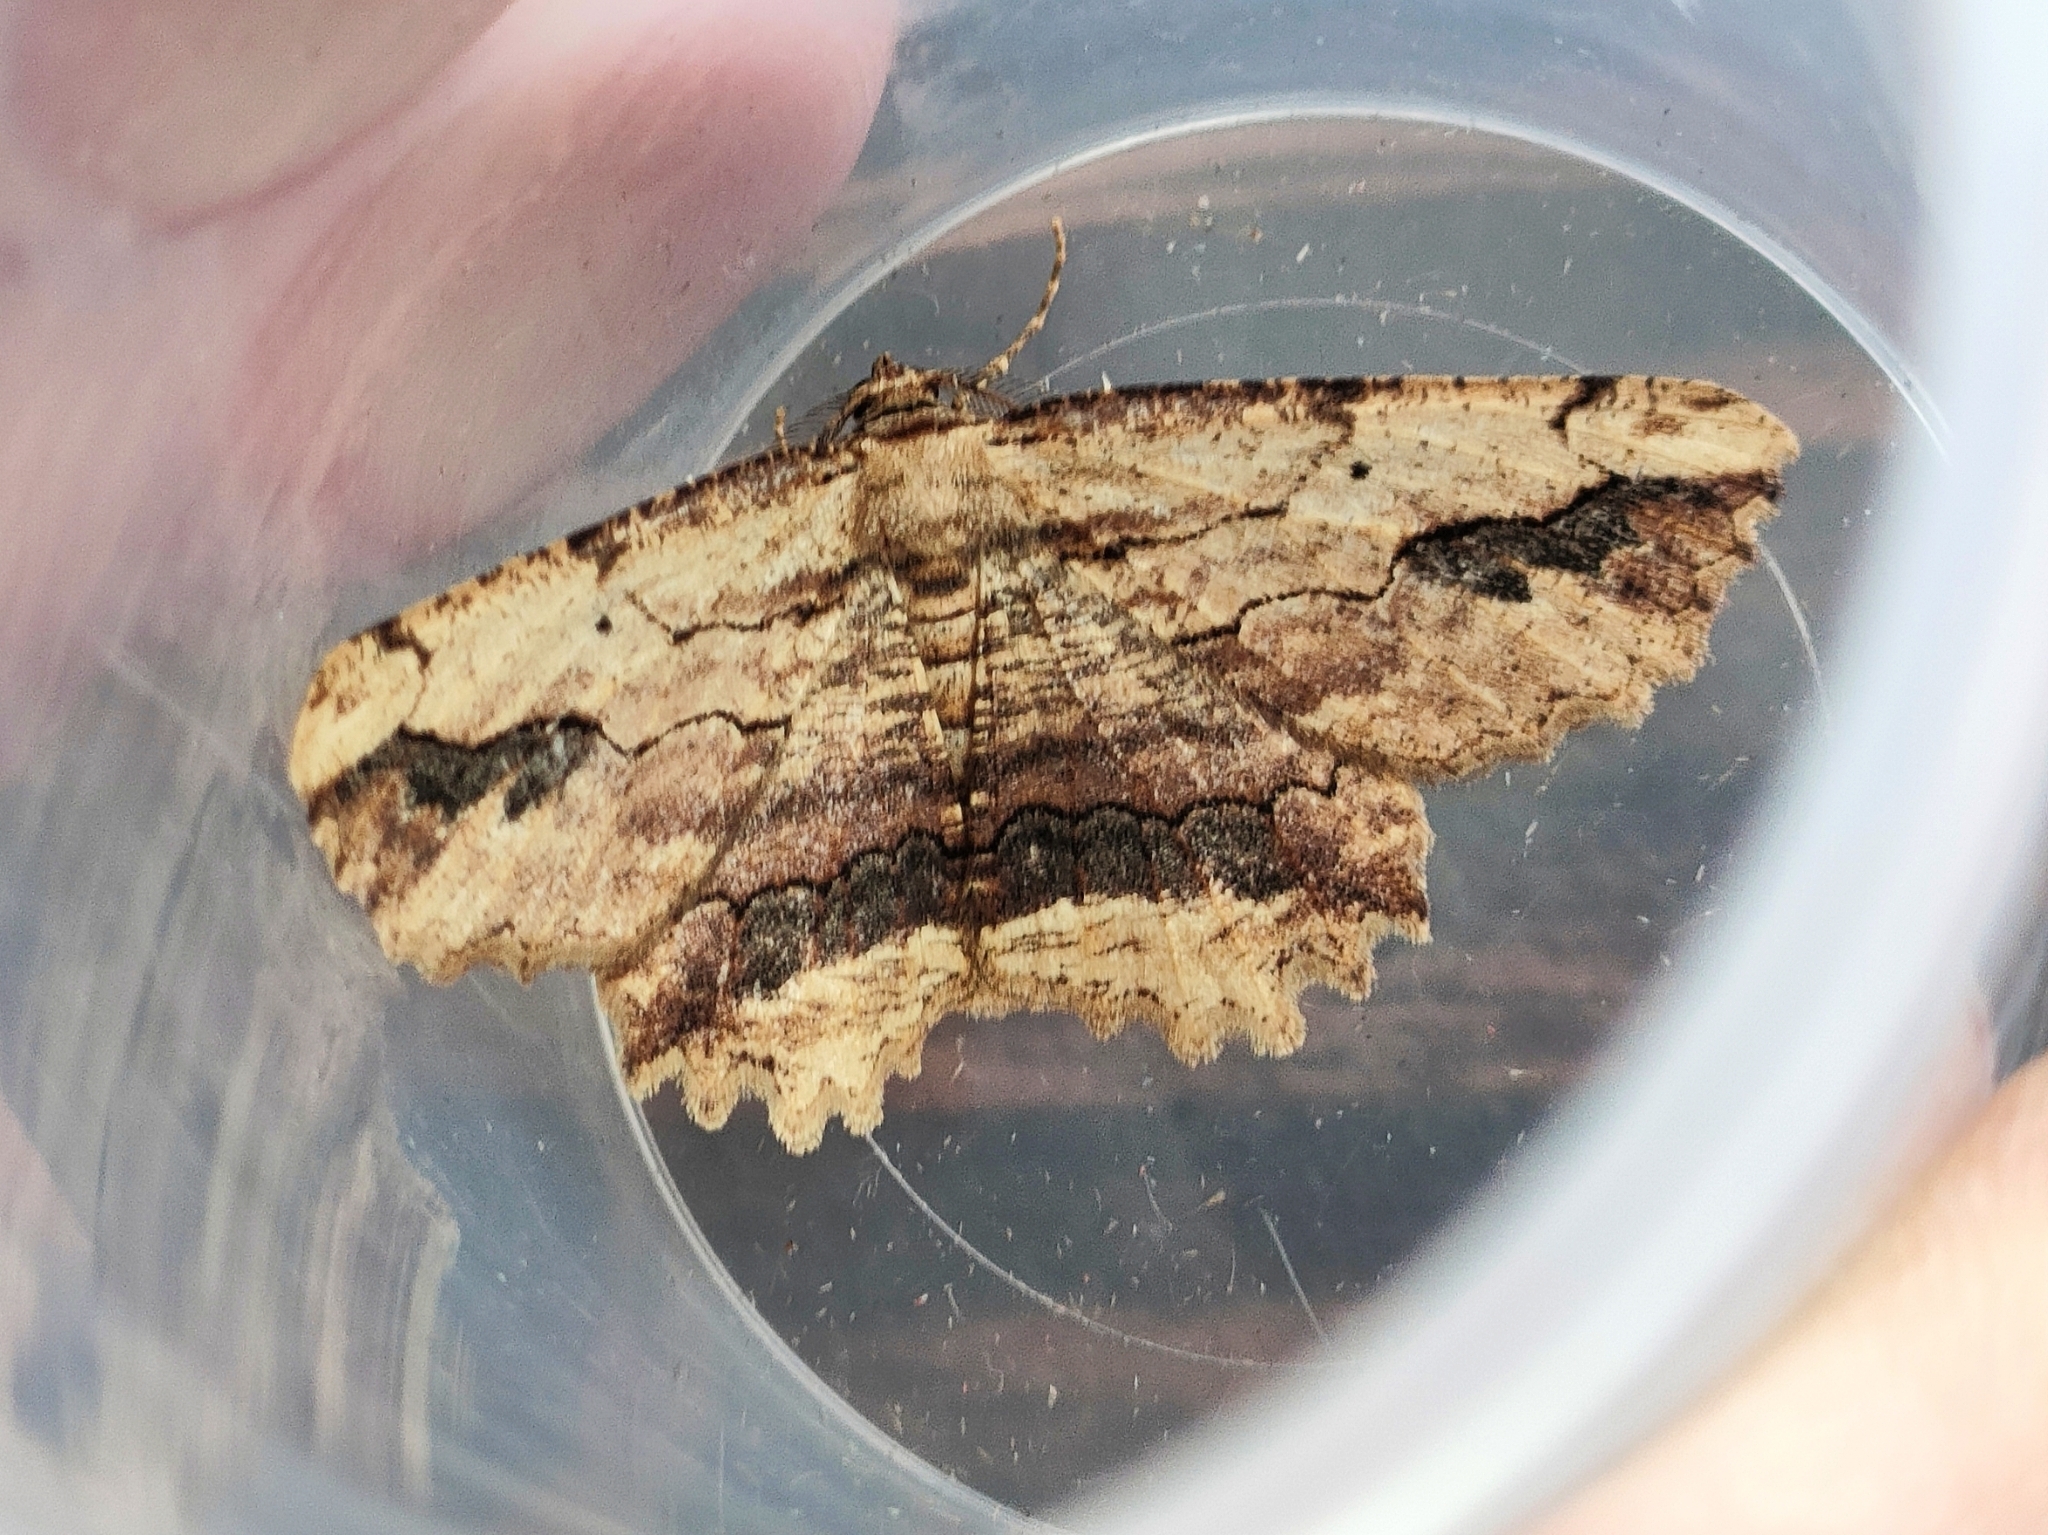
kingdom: Animalia
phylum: Arthropoda
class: Insecta
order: Lepidoptera
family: Geometridae
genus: Menophra
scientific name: Menophra abruptaria
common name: Waved umber
